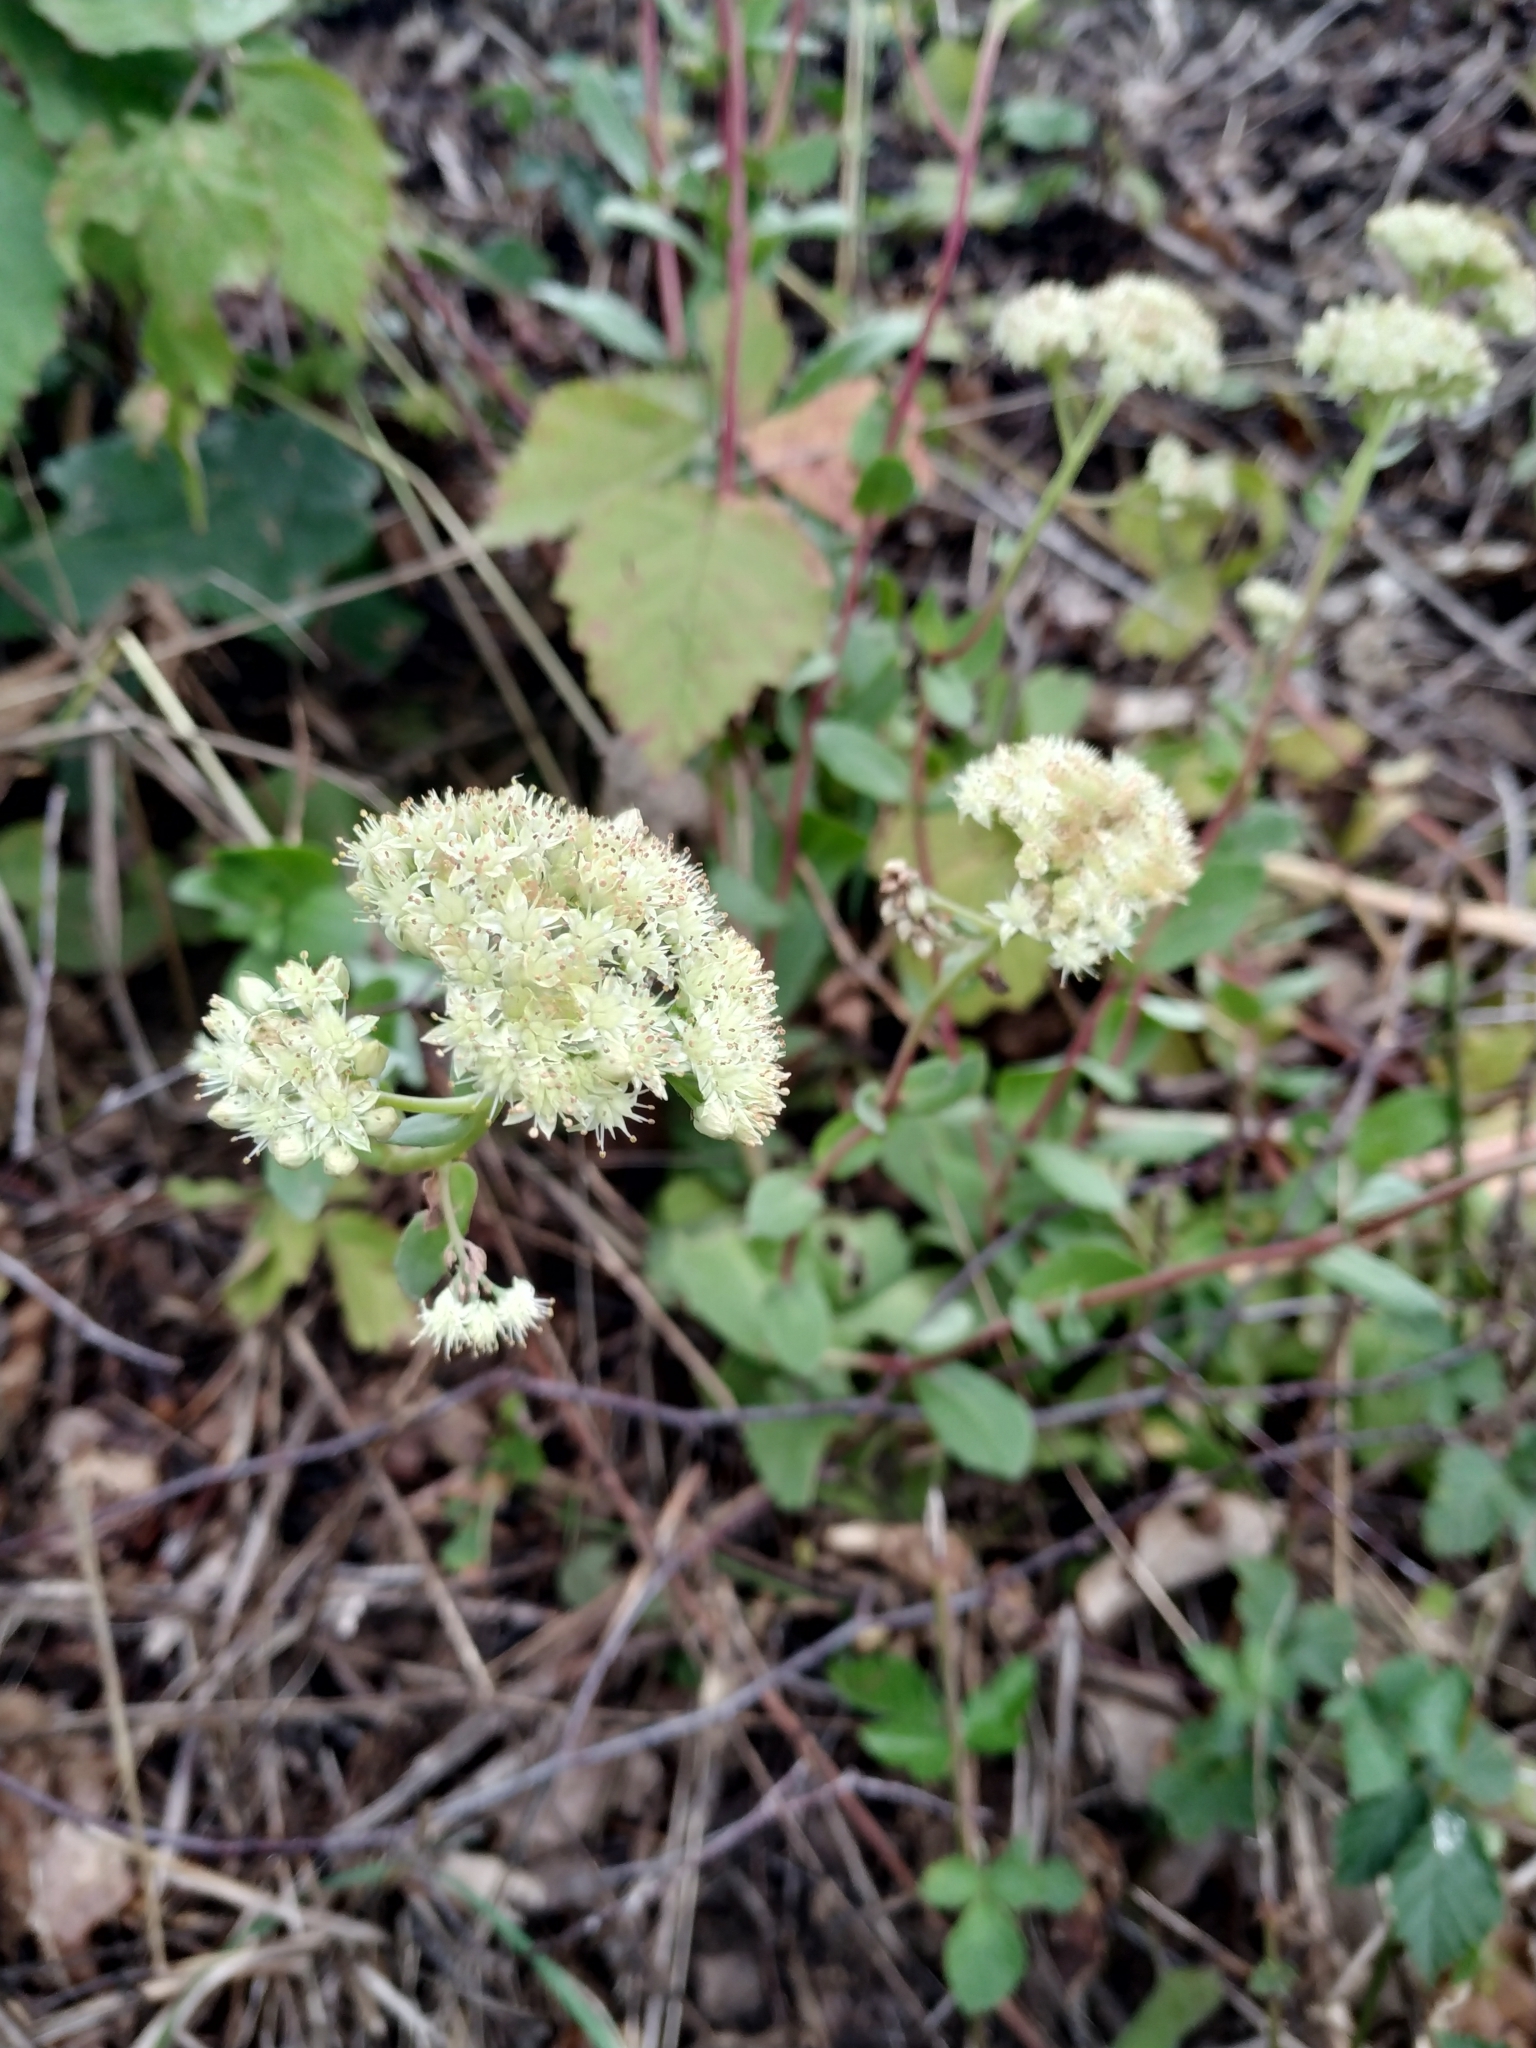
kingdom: Plantae
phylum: Tracheophyta
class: Magnoliopsida
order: Saxifragales
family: Crassulaceae
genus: Hylotelephium
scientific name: Hylotelephium maximum
